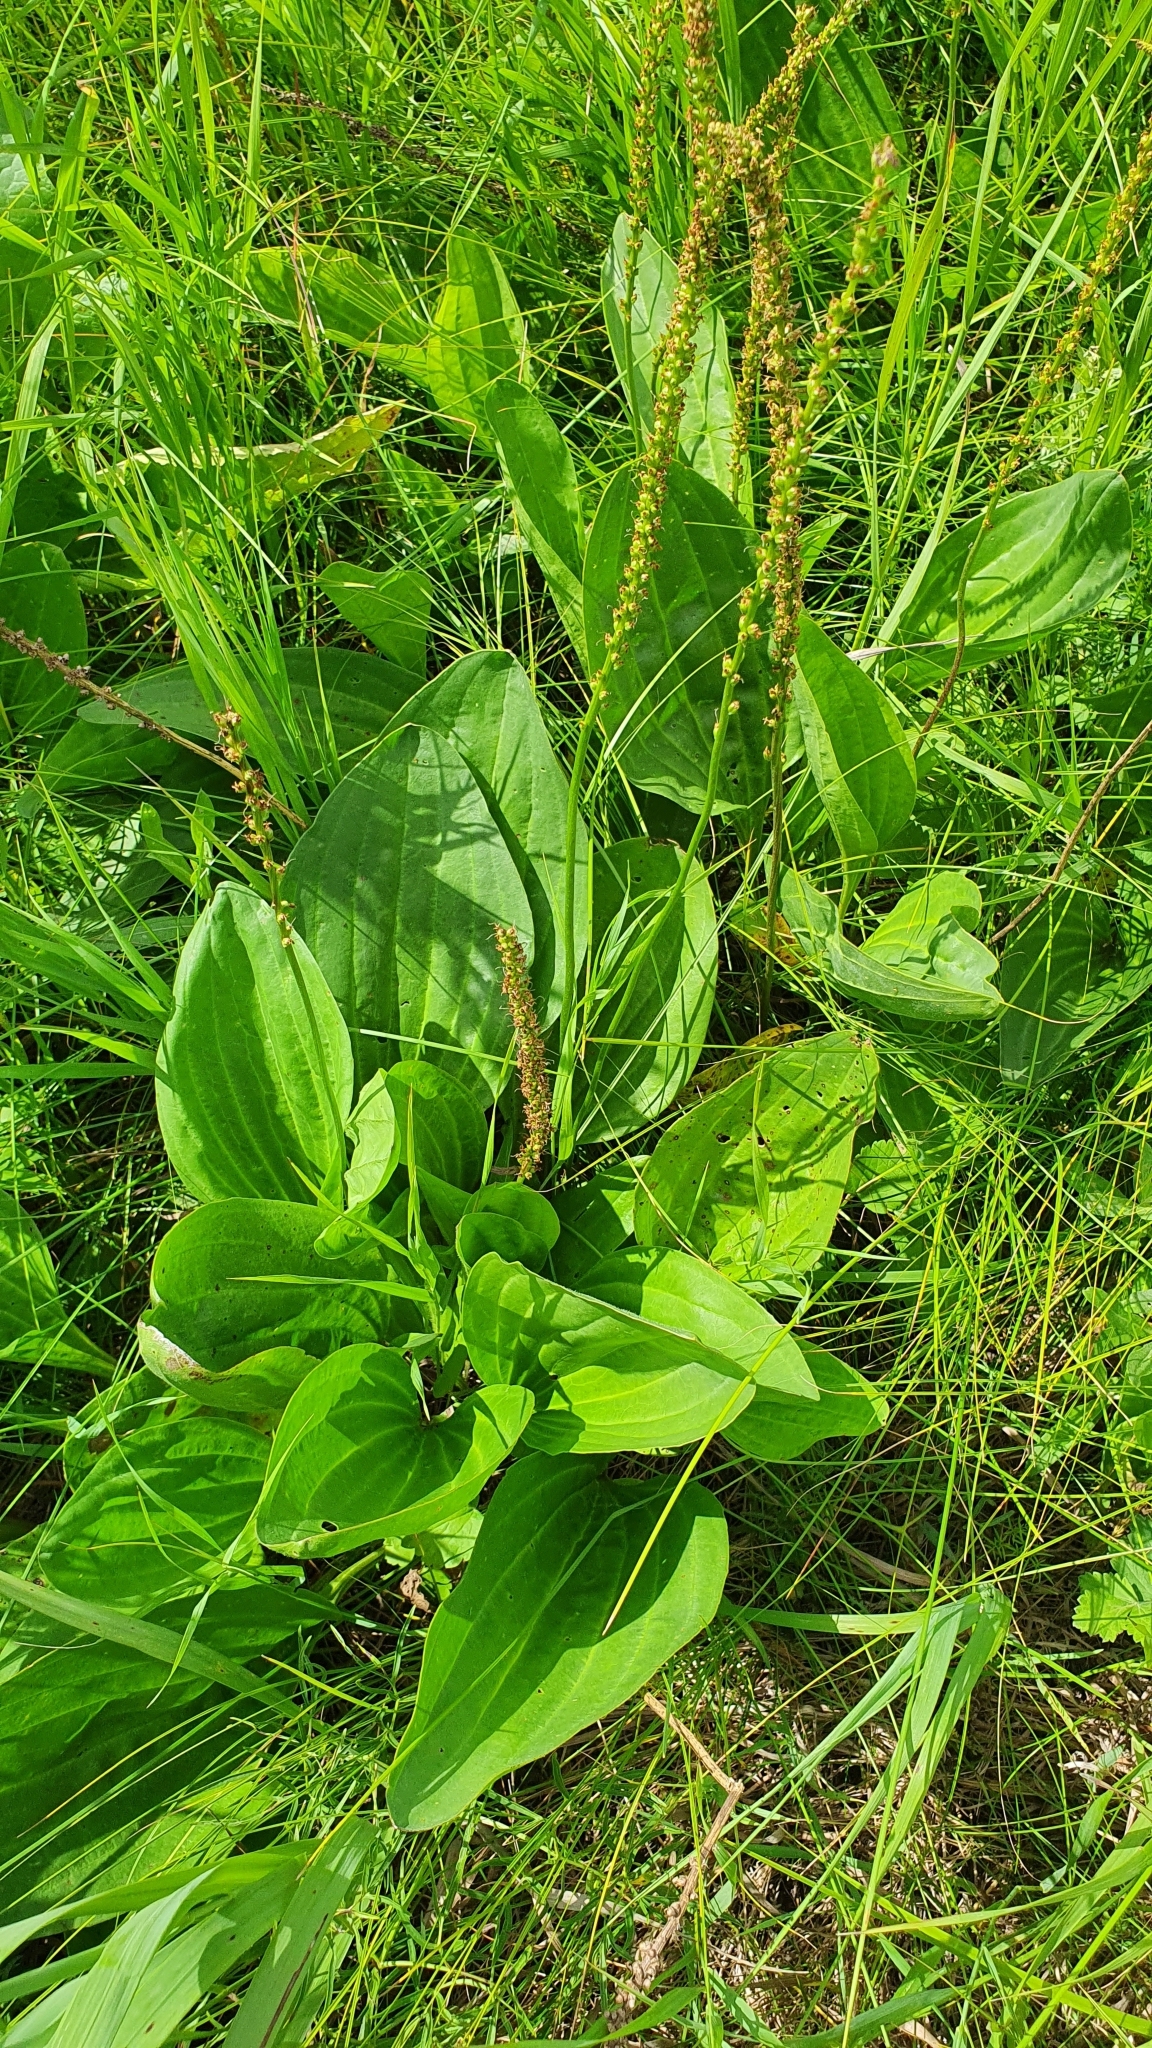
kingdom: Plantae
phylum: Tracheophyta
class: Magnoliopsida
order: Lamiales
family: Plantaginaceae
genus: Plantago
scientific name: Plantago cornuti
